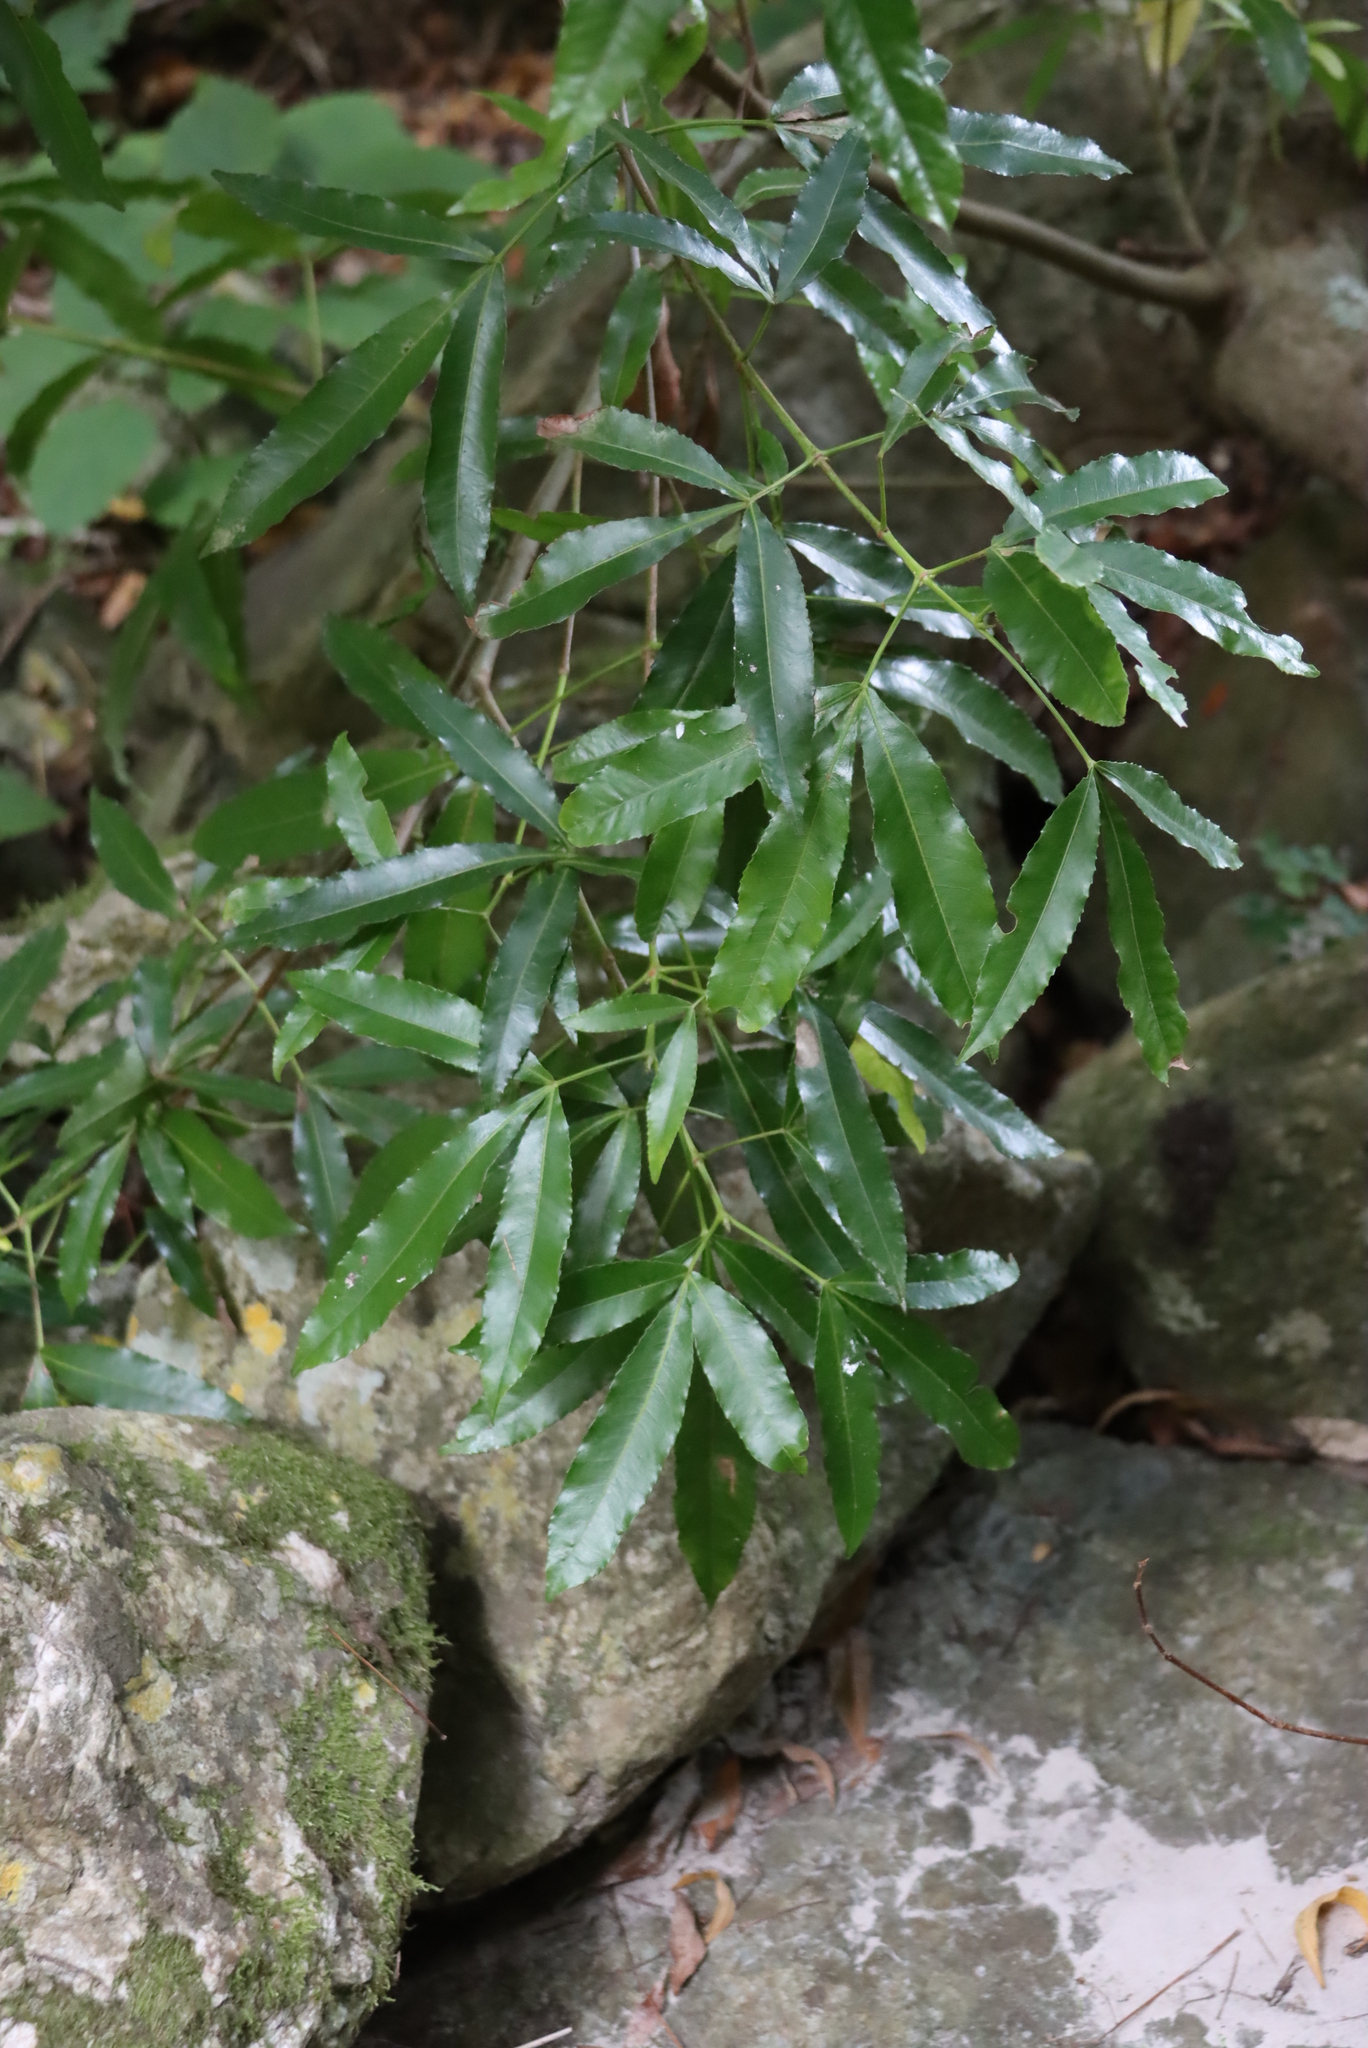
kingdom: Plantae
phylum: Tracheophyta
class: Magnoliopsida
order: Oxalidales
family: Cunoniaceae
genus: Platylophus
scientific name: Platylophus trifoliatus
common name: White alder
